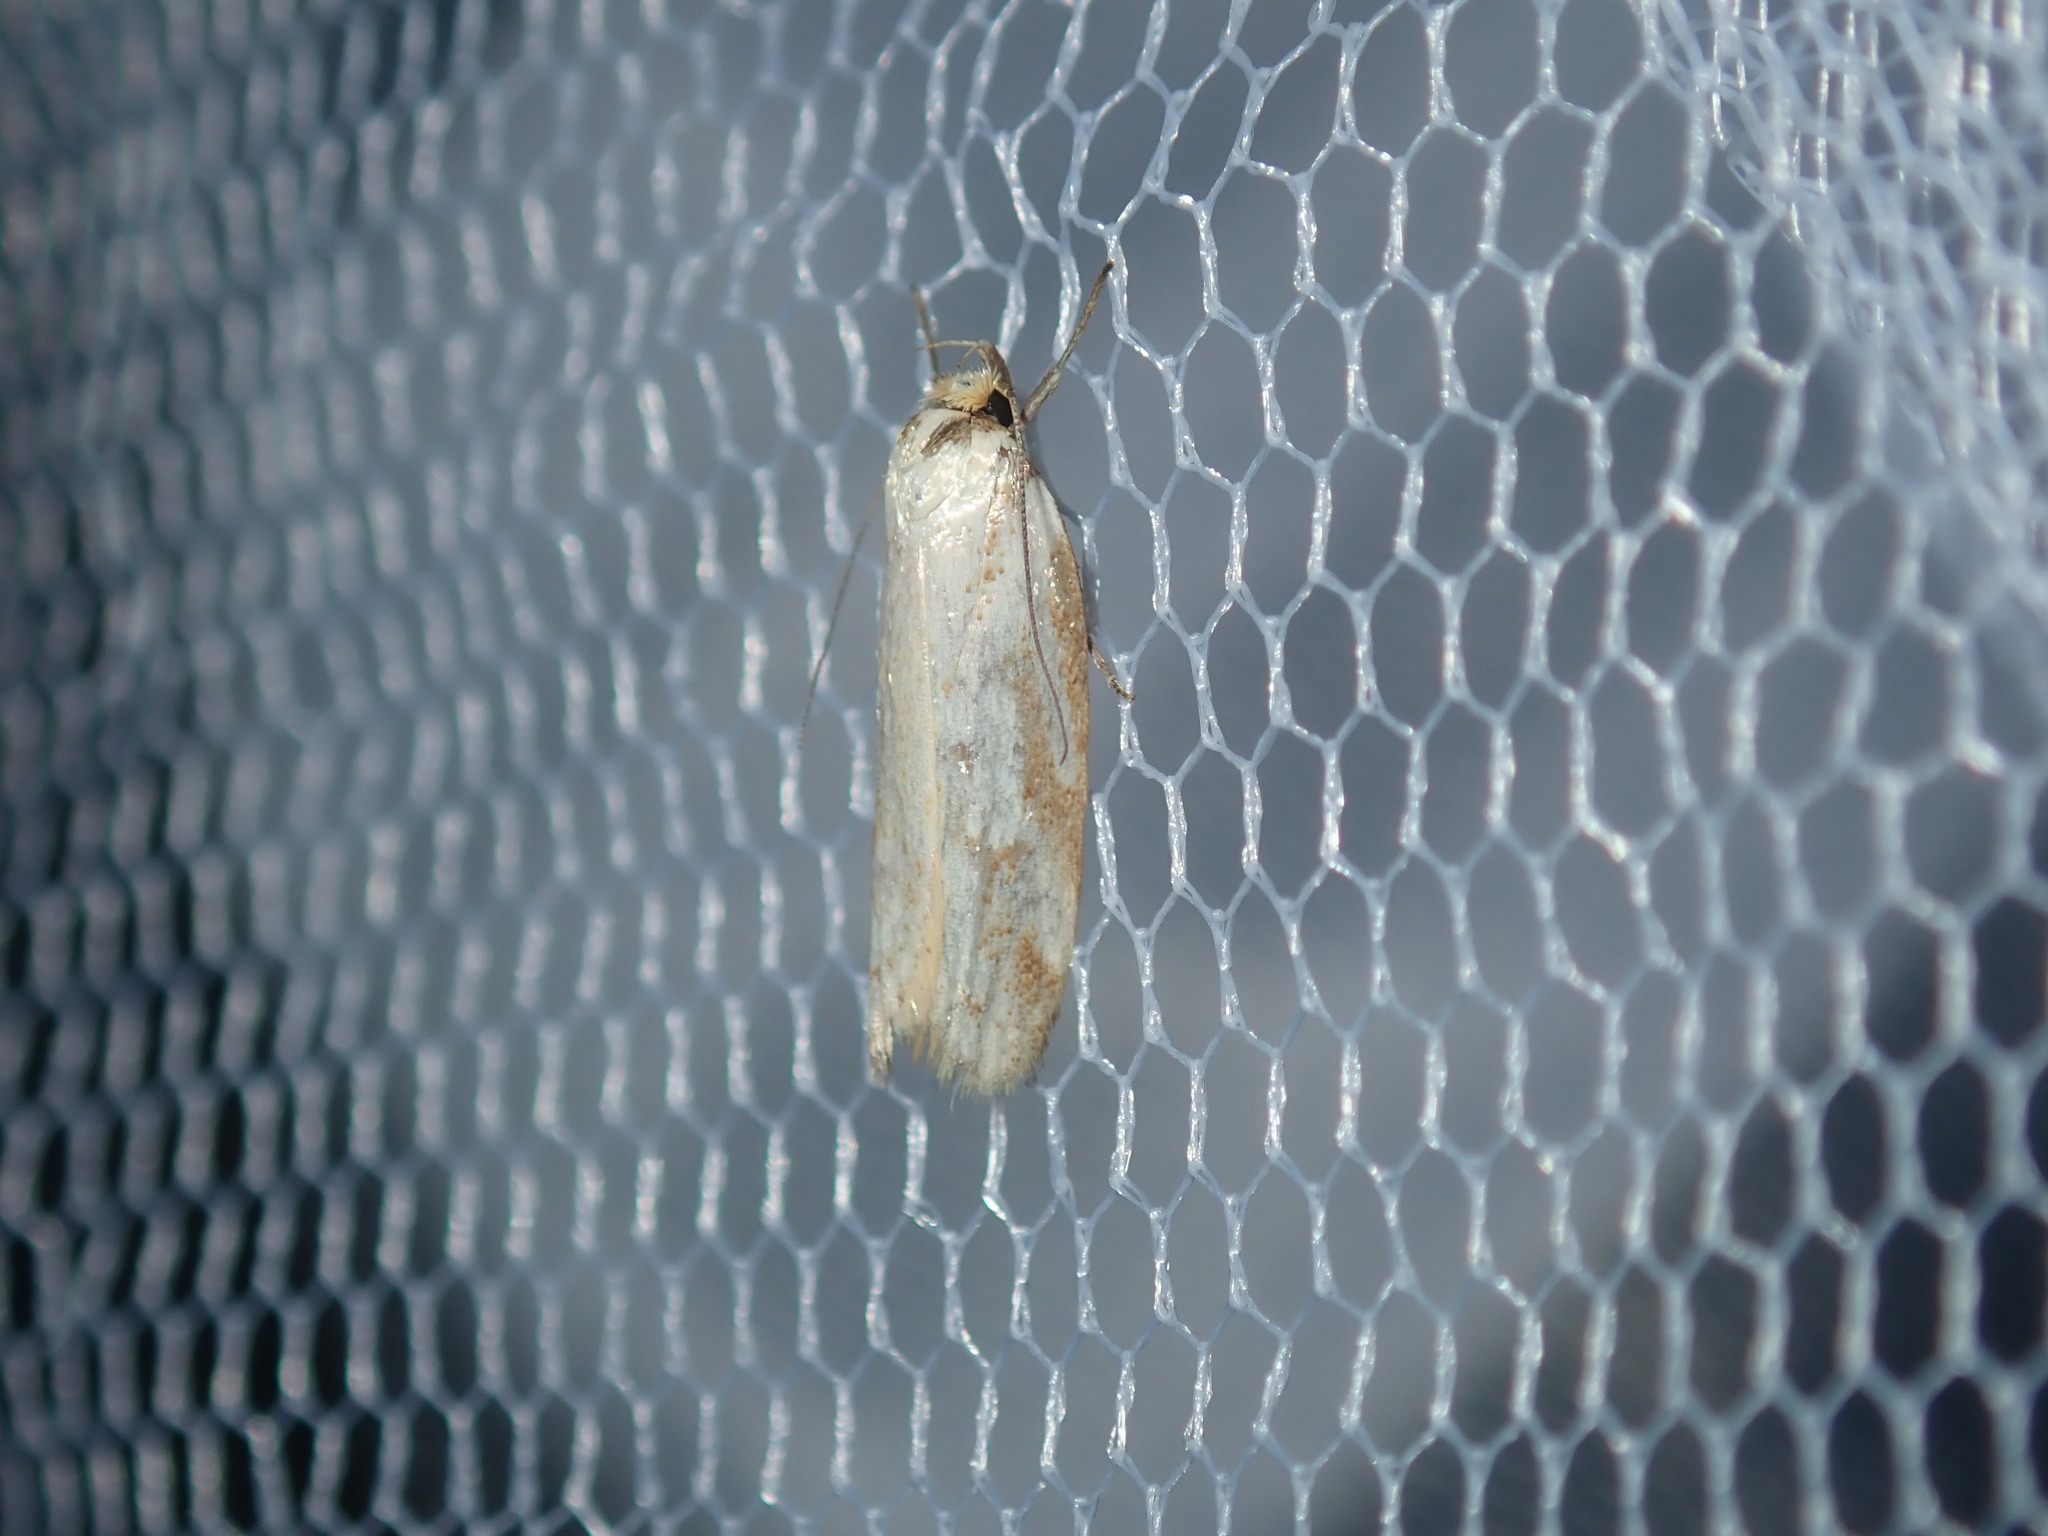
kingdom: Animalia
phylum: Arthropoda
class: Insecta
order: Lepidoptera
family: Oecophoridae
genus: Philobota
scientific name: Philobota cretacea
